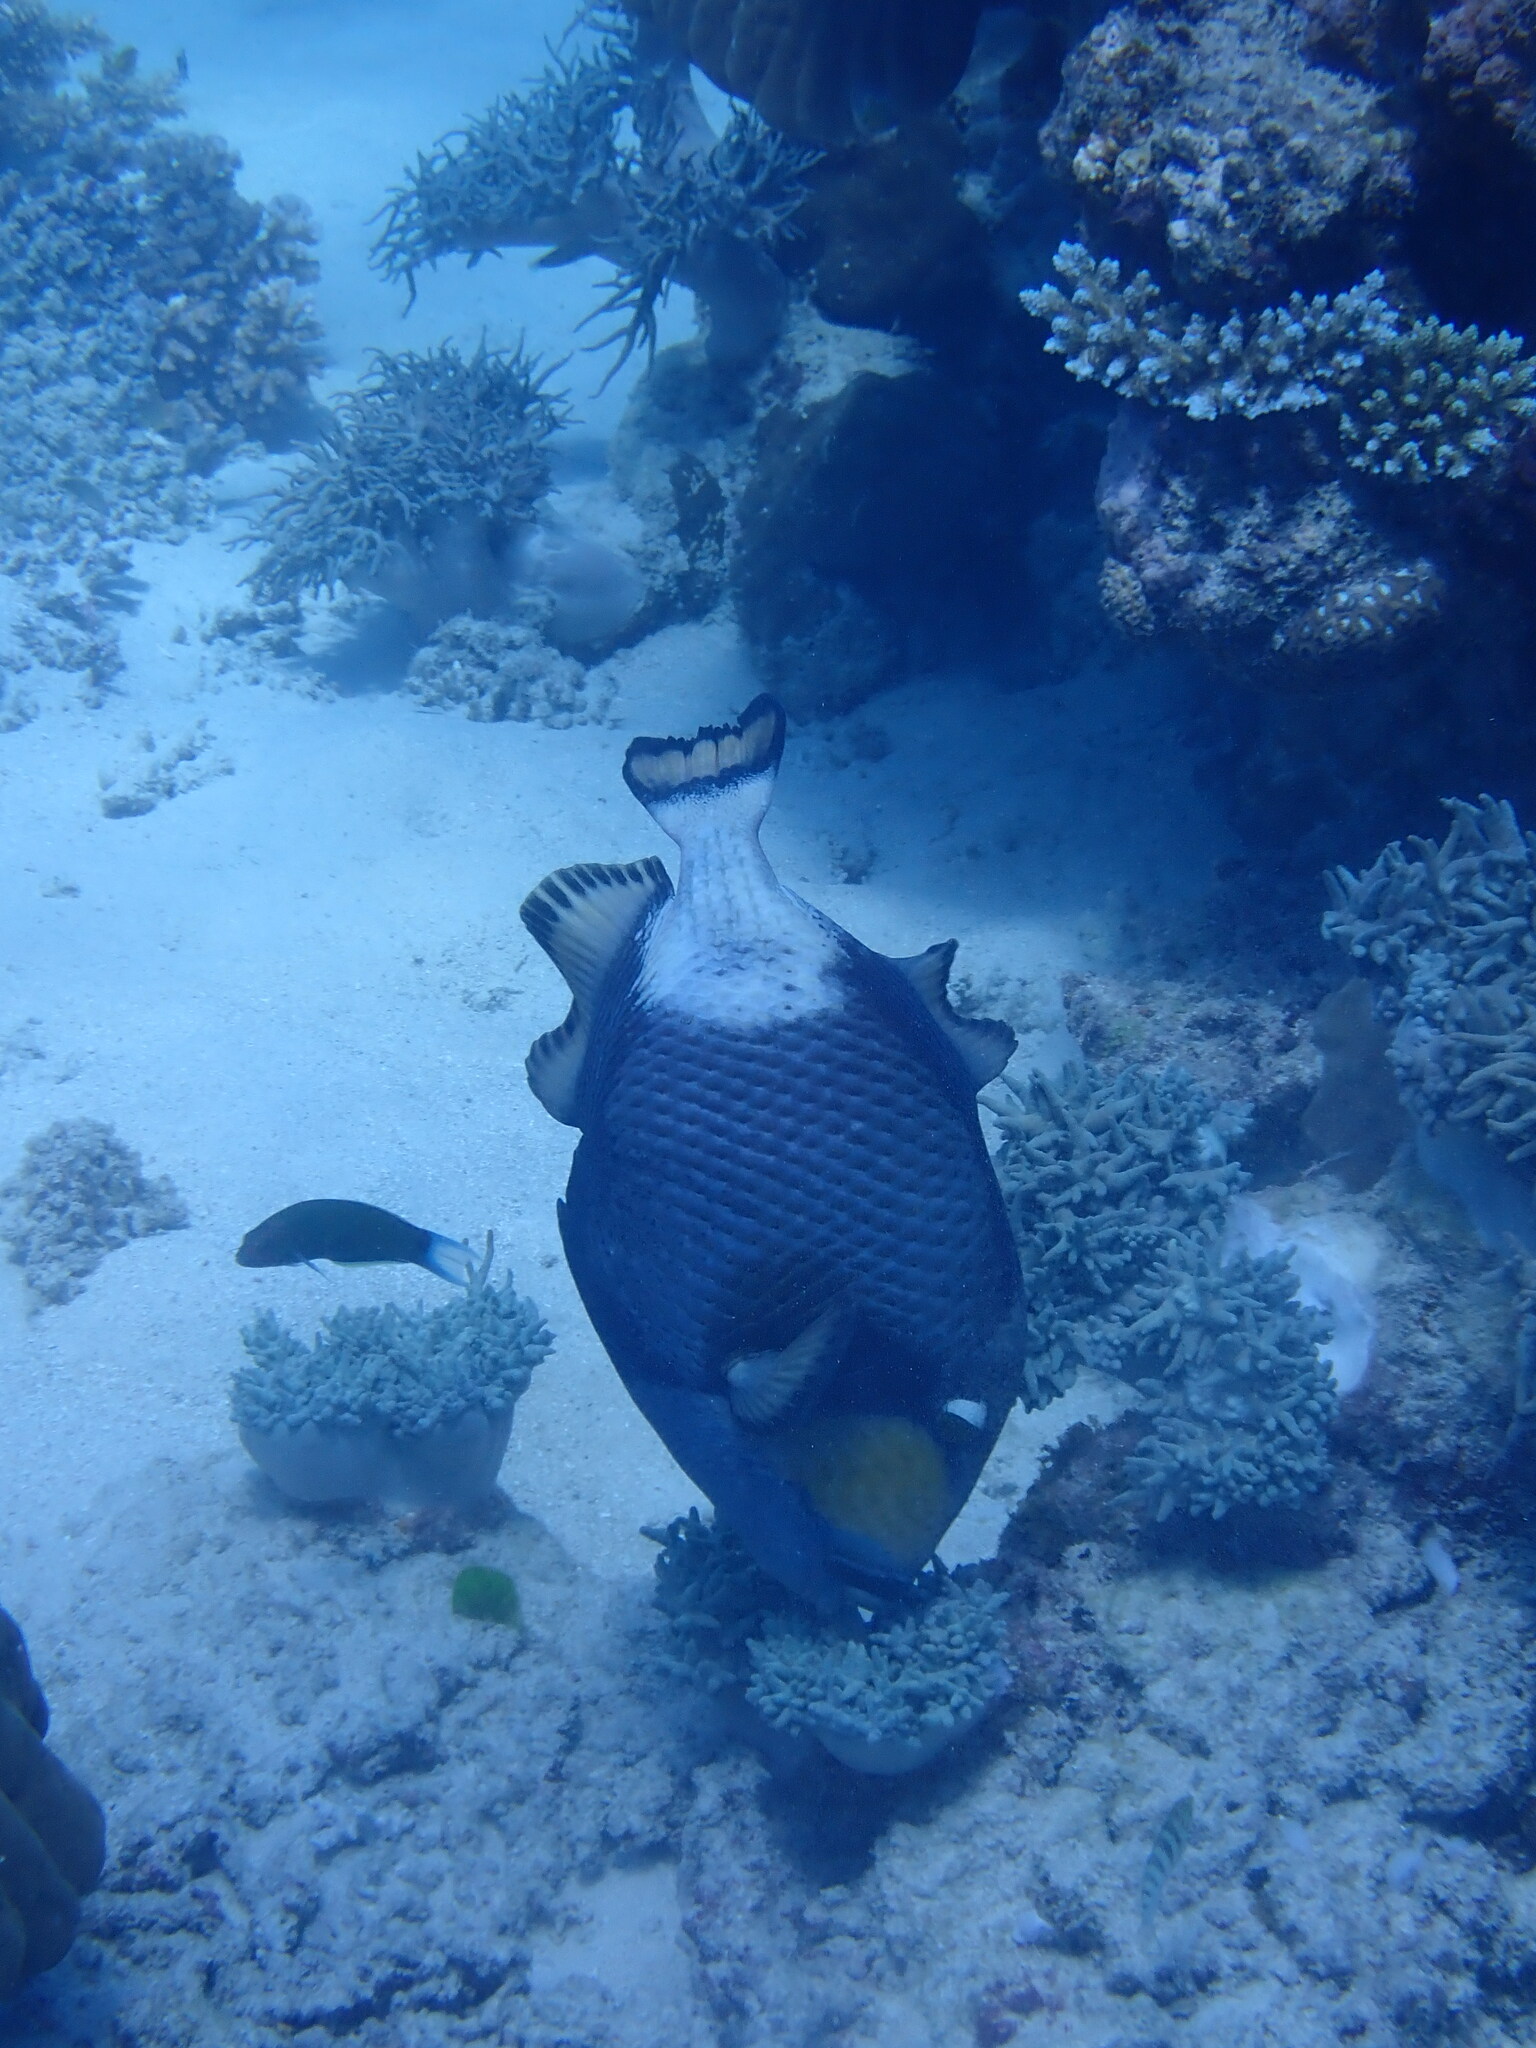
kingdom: Animalia
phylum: Chordata
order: Tetraodontiformes
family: Balistidae
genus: Balistoides
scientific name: Balistoides viridescens
